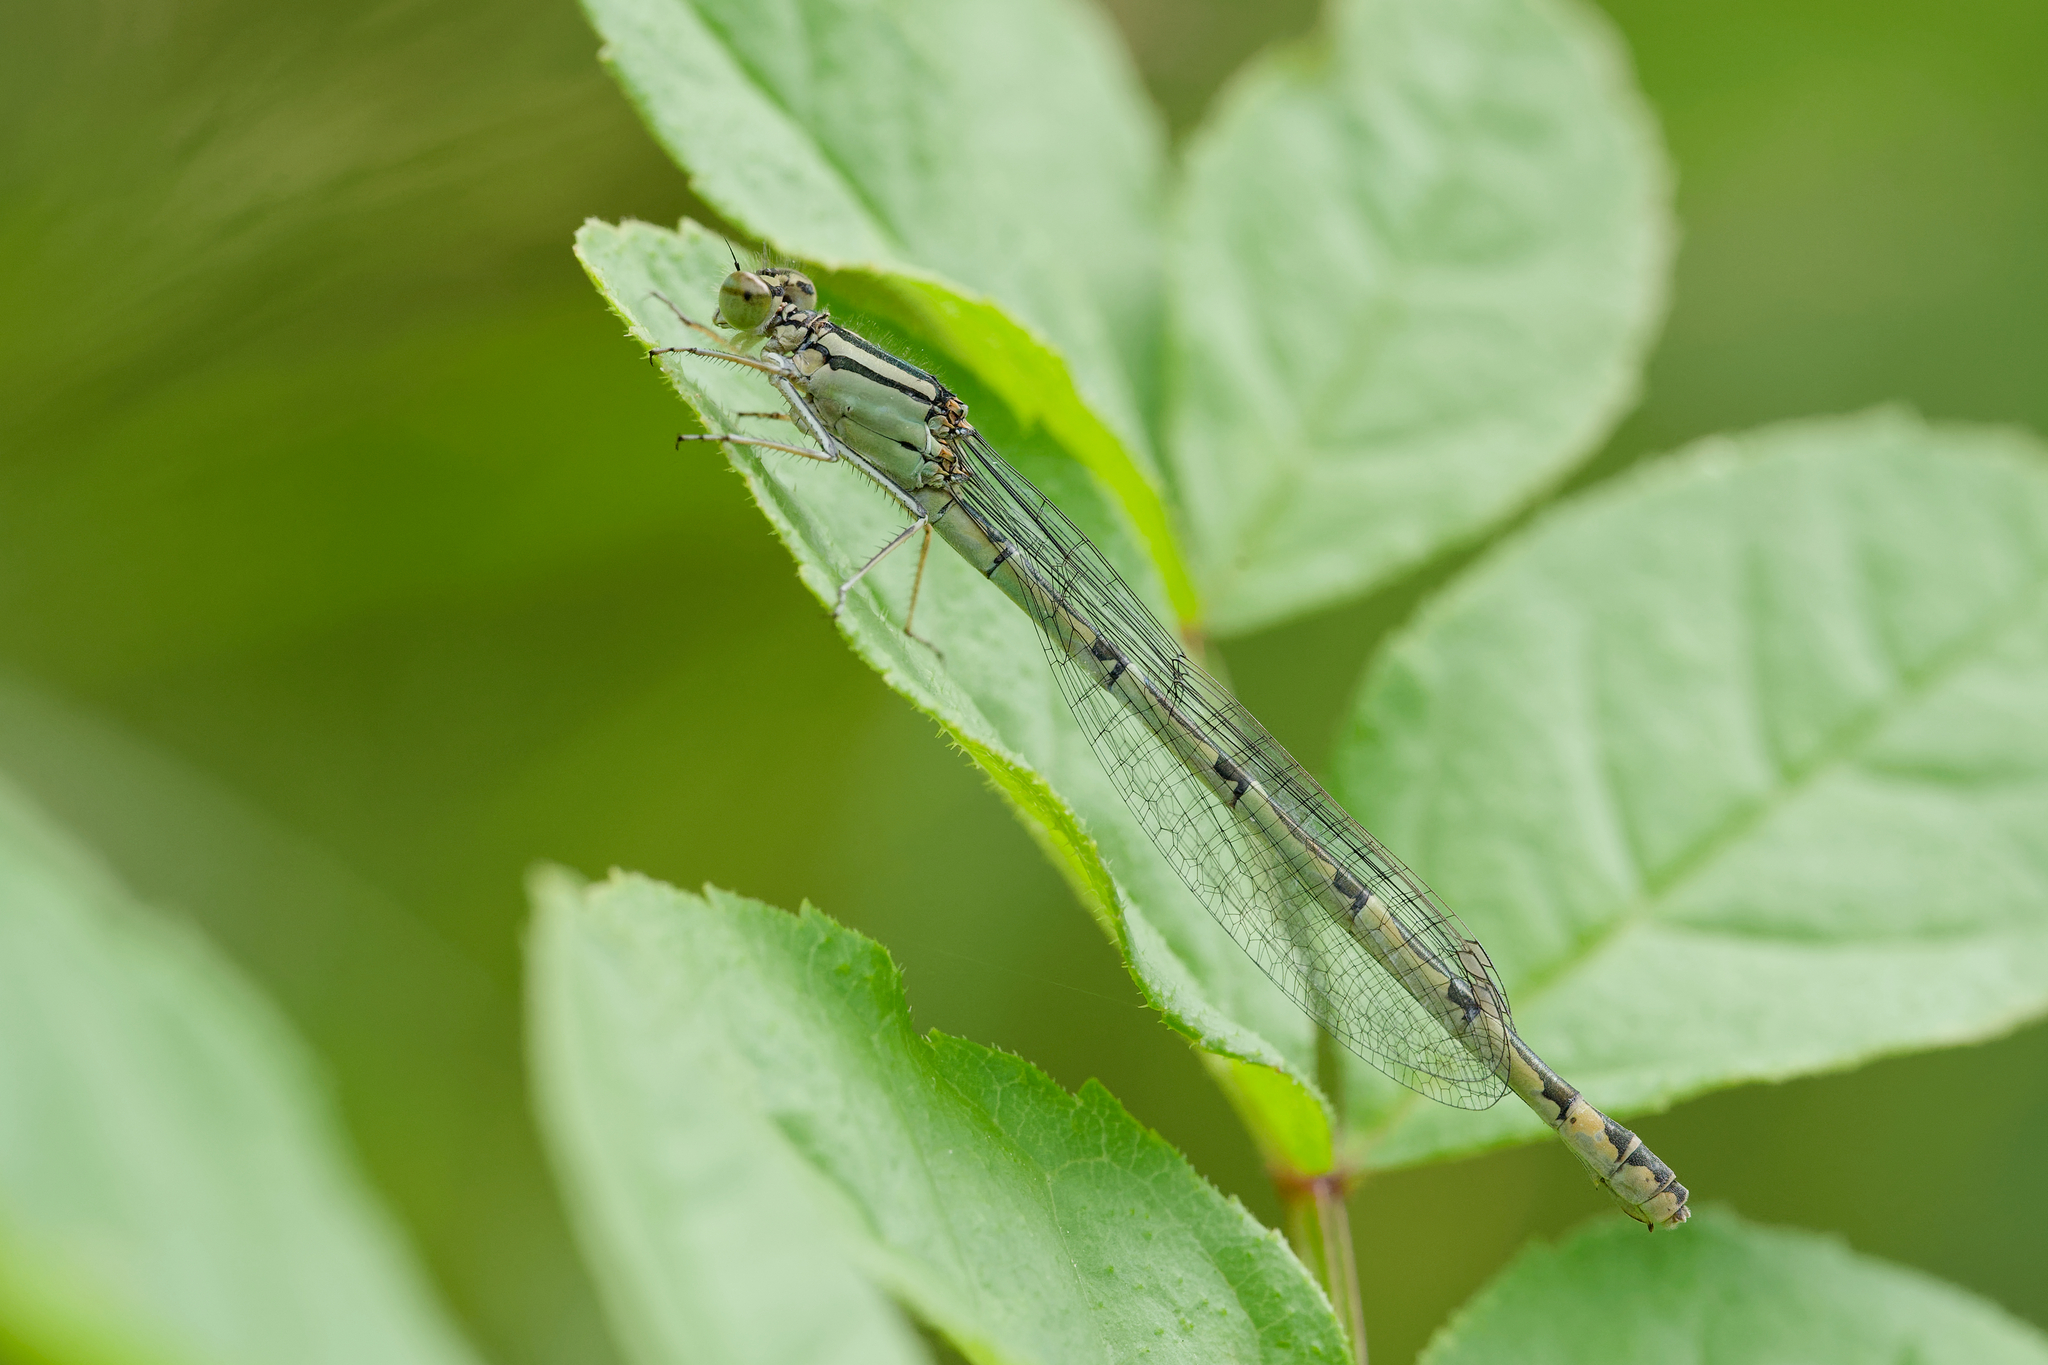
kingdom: Animalia
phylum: Arthropoda
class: Insecta
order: Odonata
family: Coenagrionidae
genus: Enallagma
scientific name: Enallagma cyathigerum
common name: Common blue damselfly
